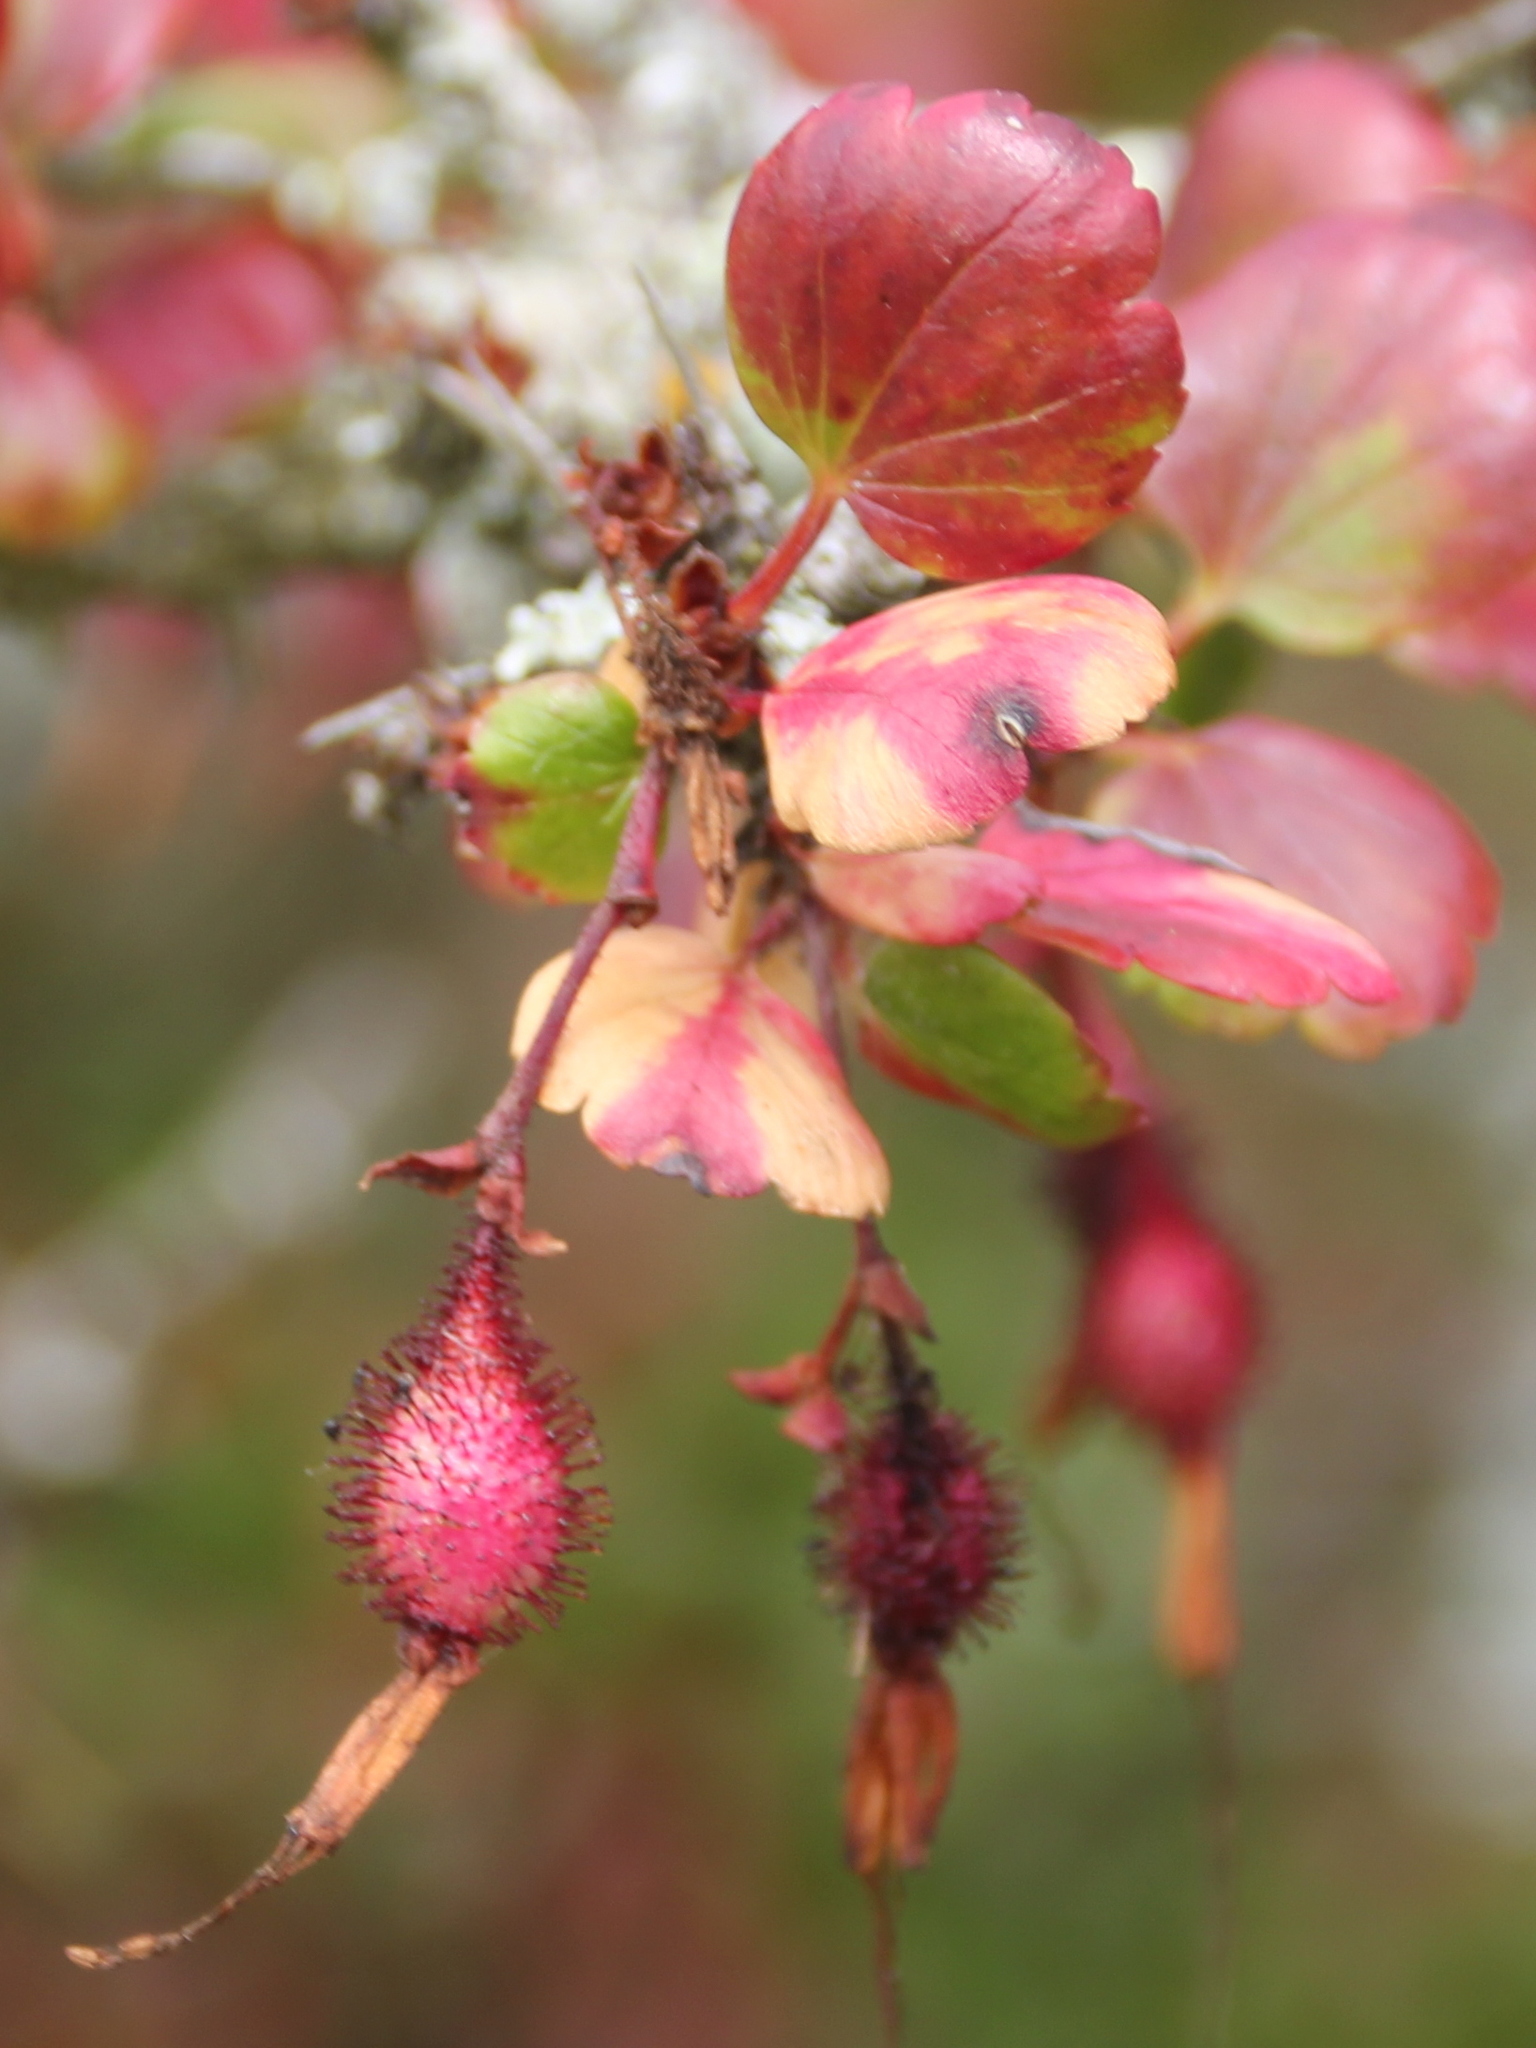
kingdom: Plantae
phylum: Tracheophyta
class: Magnoliopsida
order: Saxifragales
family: Grossulariaceae
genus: Ribes
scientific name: Ribes speciosum
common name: Fuchsia-flower gooseberry
